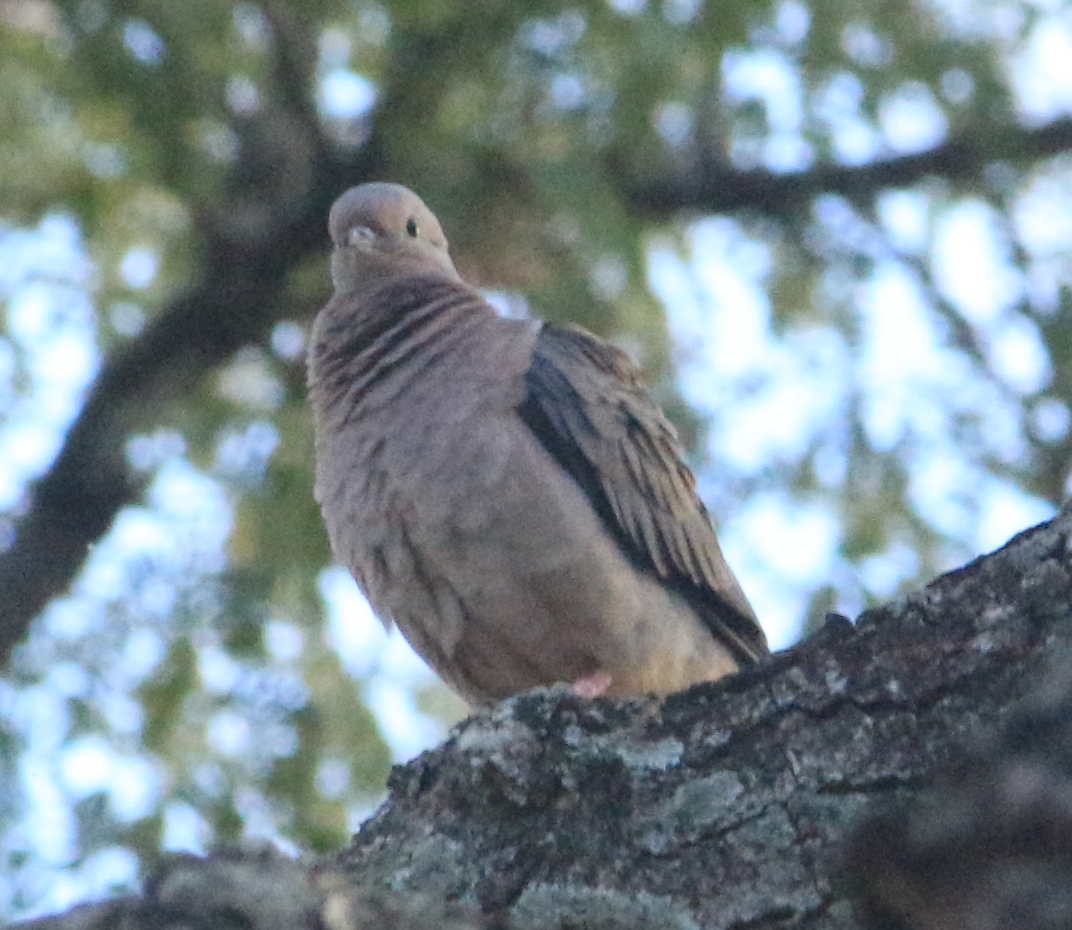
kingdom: Animalia
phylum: Chordata
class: Aves
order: Columbiformes
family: Columbidae
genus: Zenaida
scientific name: Zenaida auriculata
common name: Eared dove
